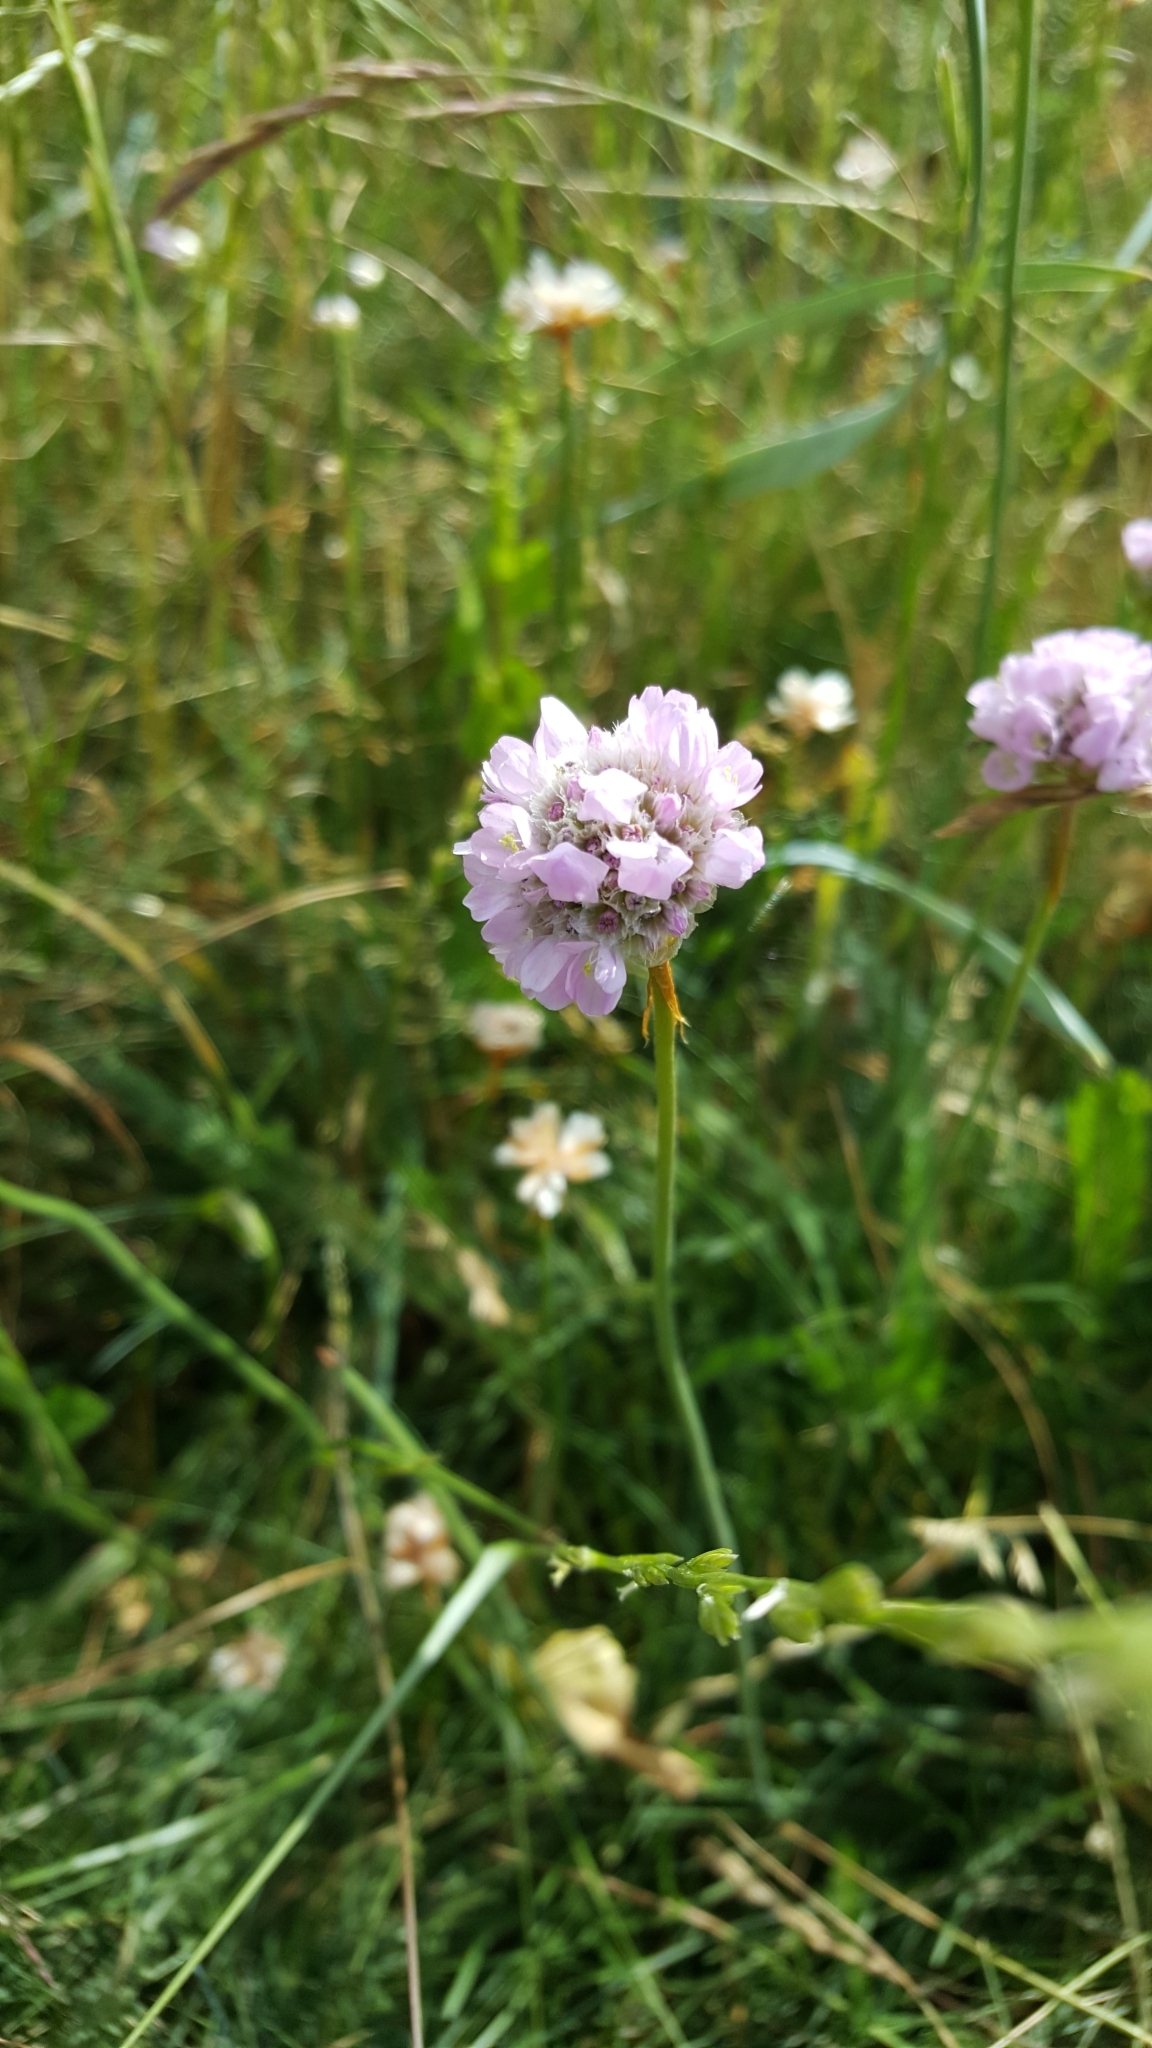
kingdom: Plantae
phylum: Tracheophyta
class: Magnoliopsida
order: Caryophyllales
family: Plumbaginaceae
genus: Armeria
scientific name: Armeria maritima
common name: Thrift
